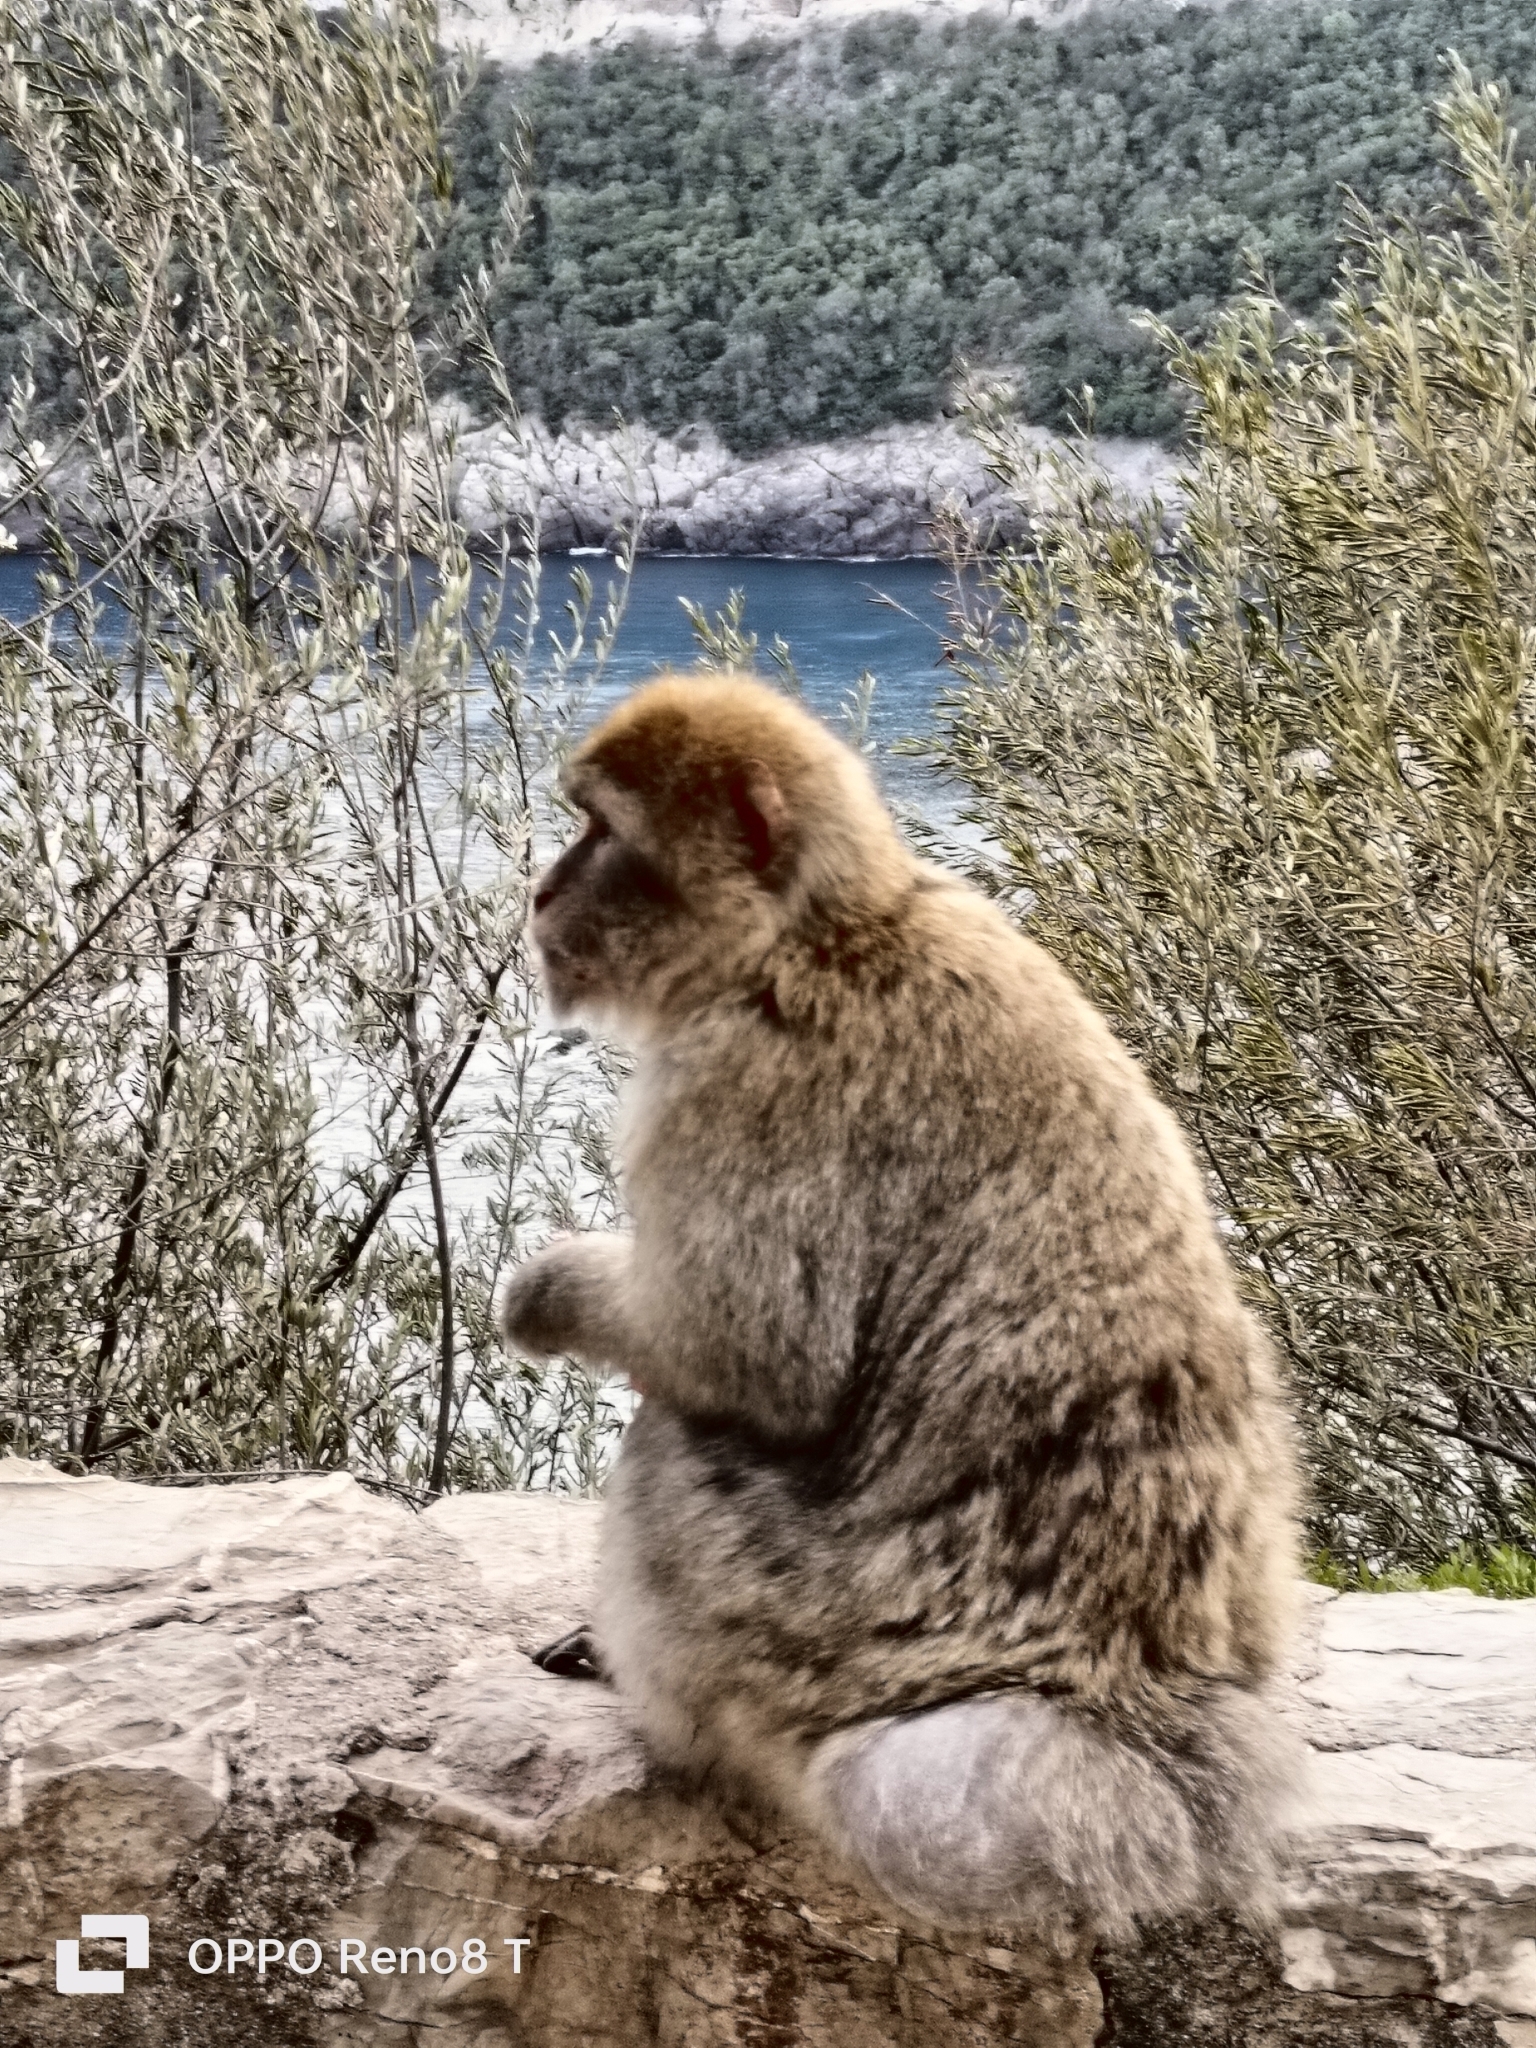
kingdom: Animalia
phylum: Chordata
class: Mammalia
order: Primates
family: Cercopithecidae
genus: Macaca
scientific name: Macaca sylvanus
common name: Barbary macaque
